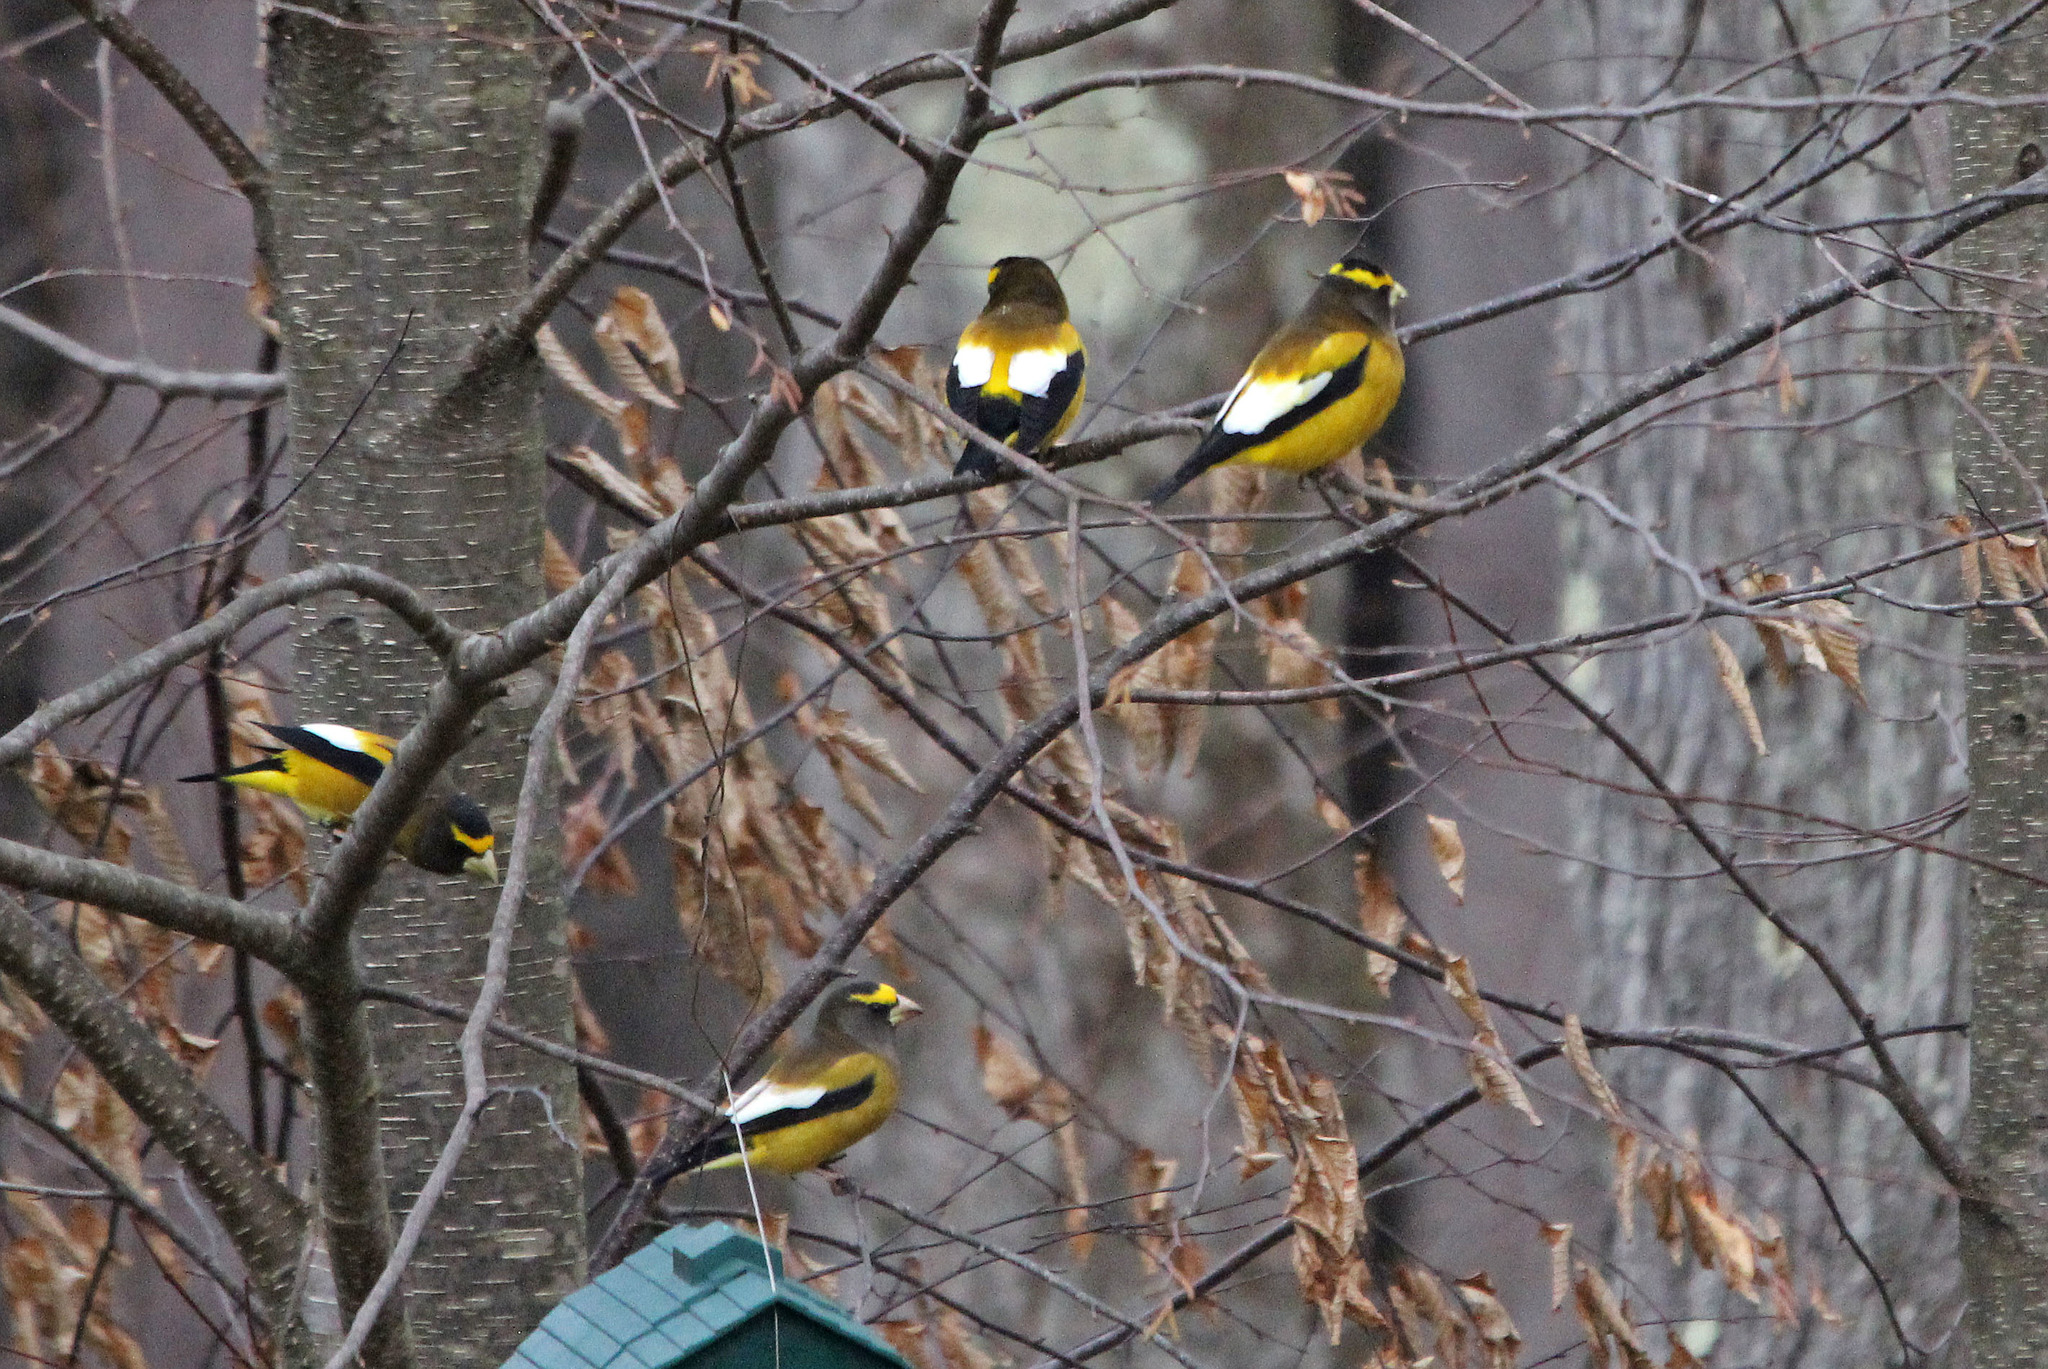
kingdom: Animalia
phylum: Chordata
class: Aves
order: Passeriformes
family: Fringillidae
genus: Hesperiphona
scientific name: Hesperiphona vespertina
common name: Evening grosbeak
